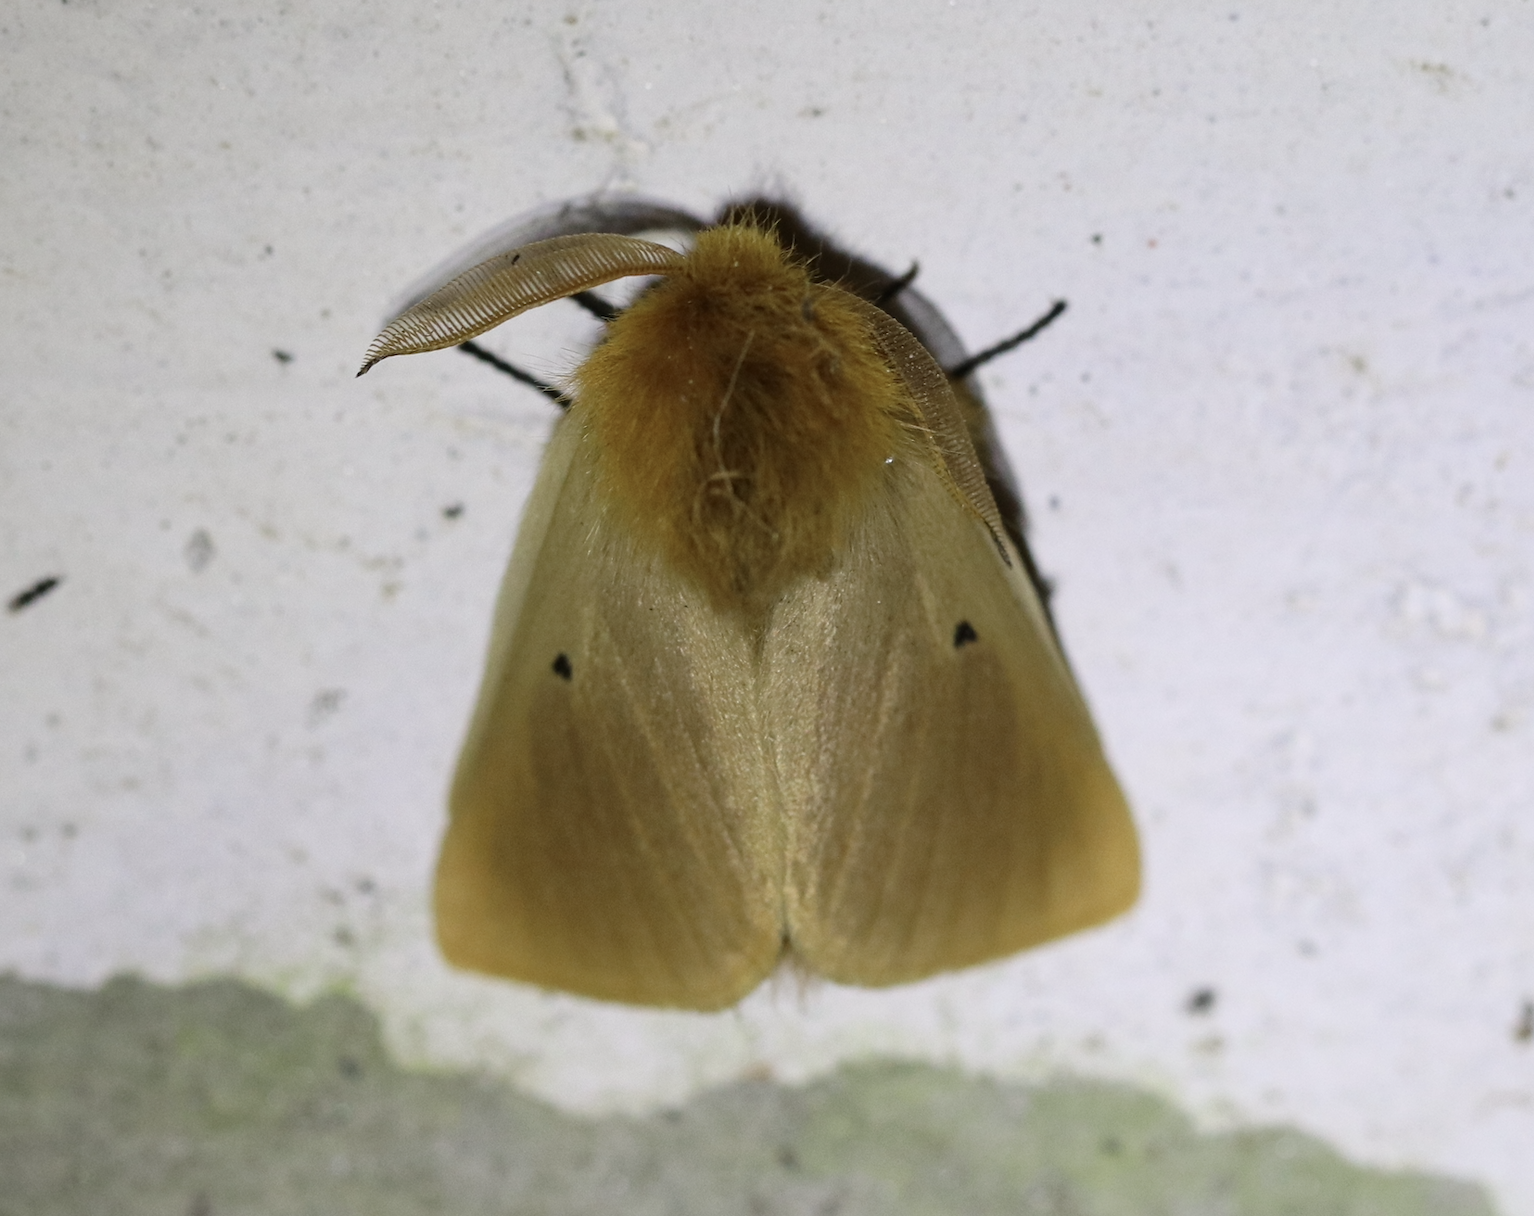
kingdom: Animalia
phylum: Arthropoda
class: Insecta
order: Lepidoptera
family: Brahmaeidae
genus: Lemonia
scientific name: Lemonia taraxaci
